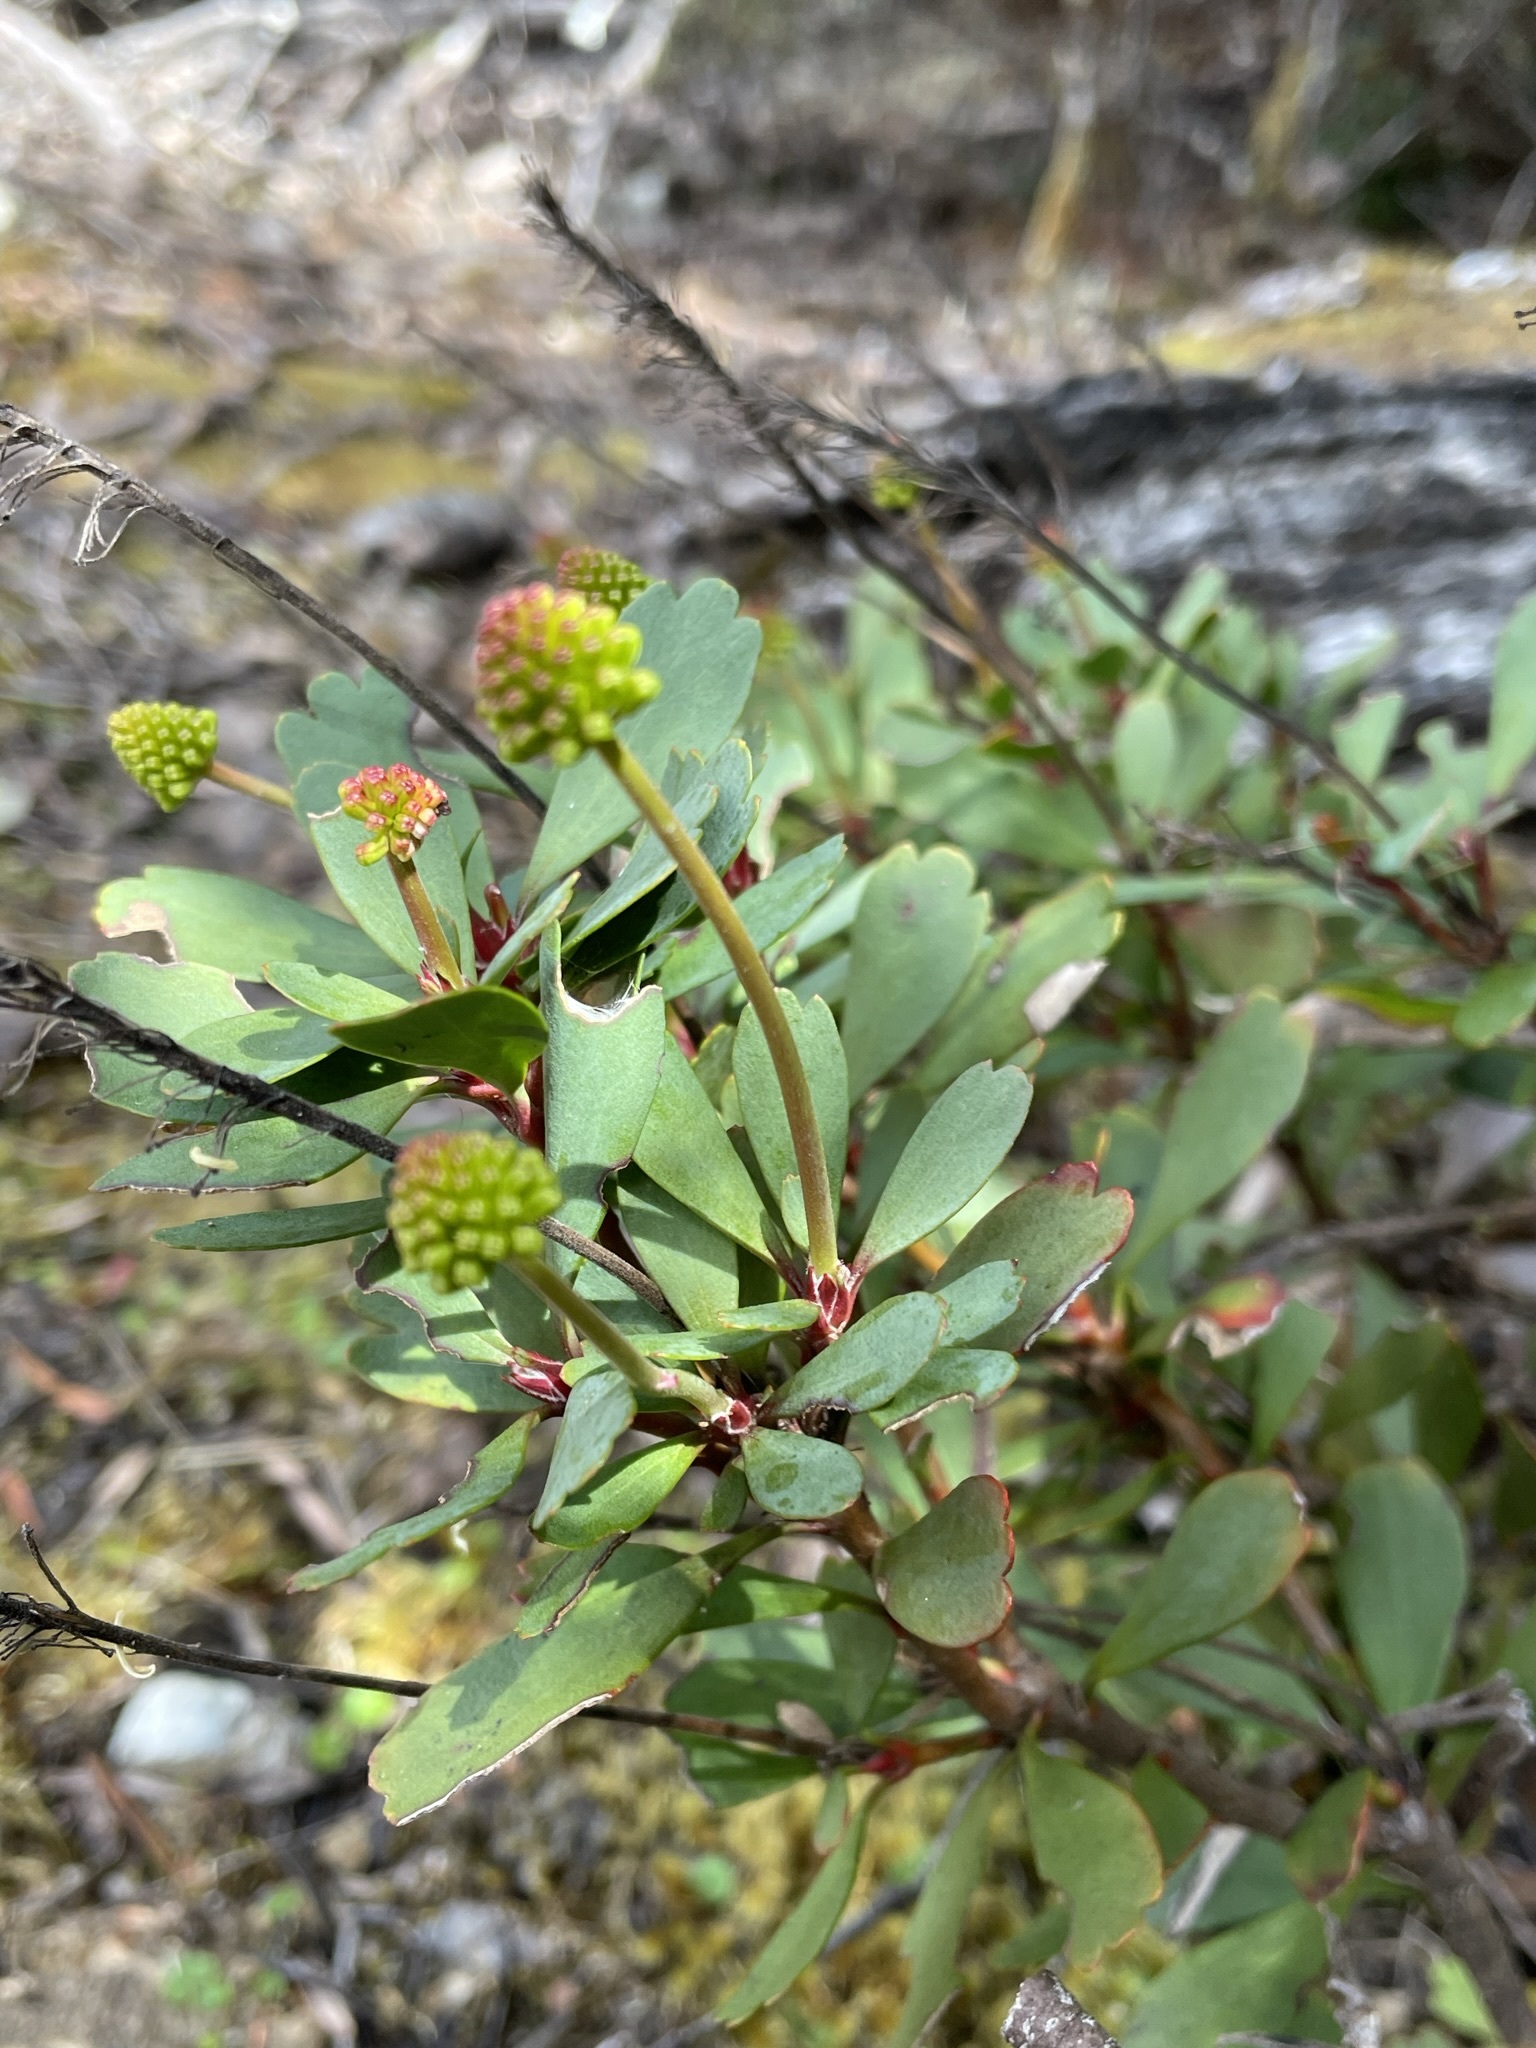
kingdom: Plantae
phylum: Tracheophyta
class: Magnoliopsida
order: Proteales
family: Proteaceae
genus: Bellendena
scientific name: Bellendena montana
